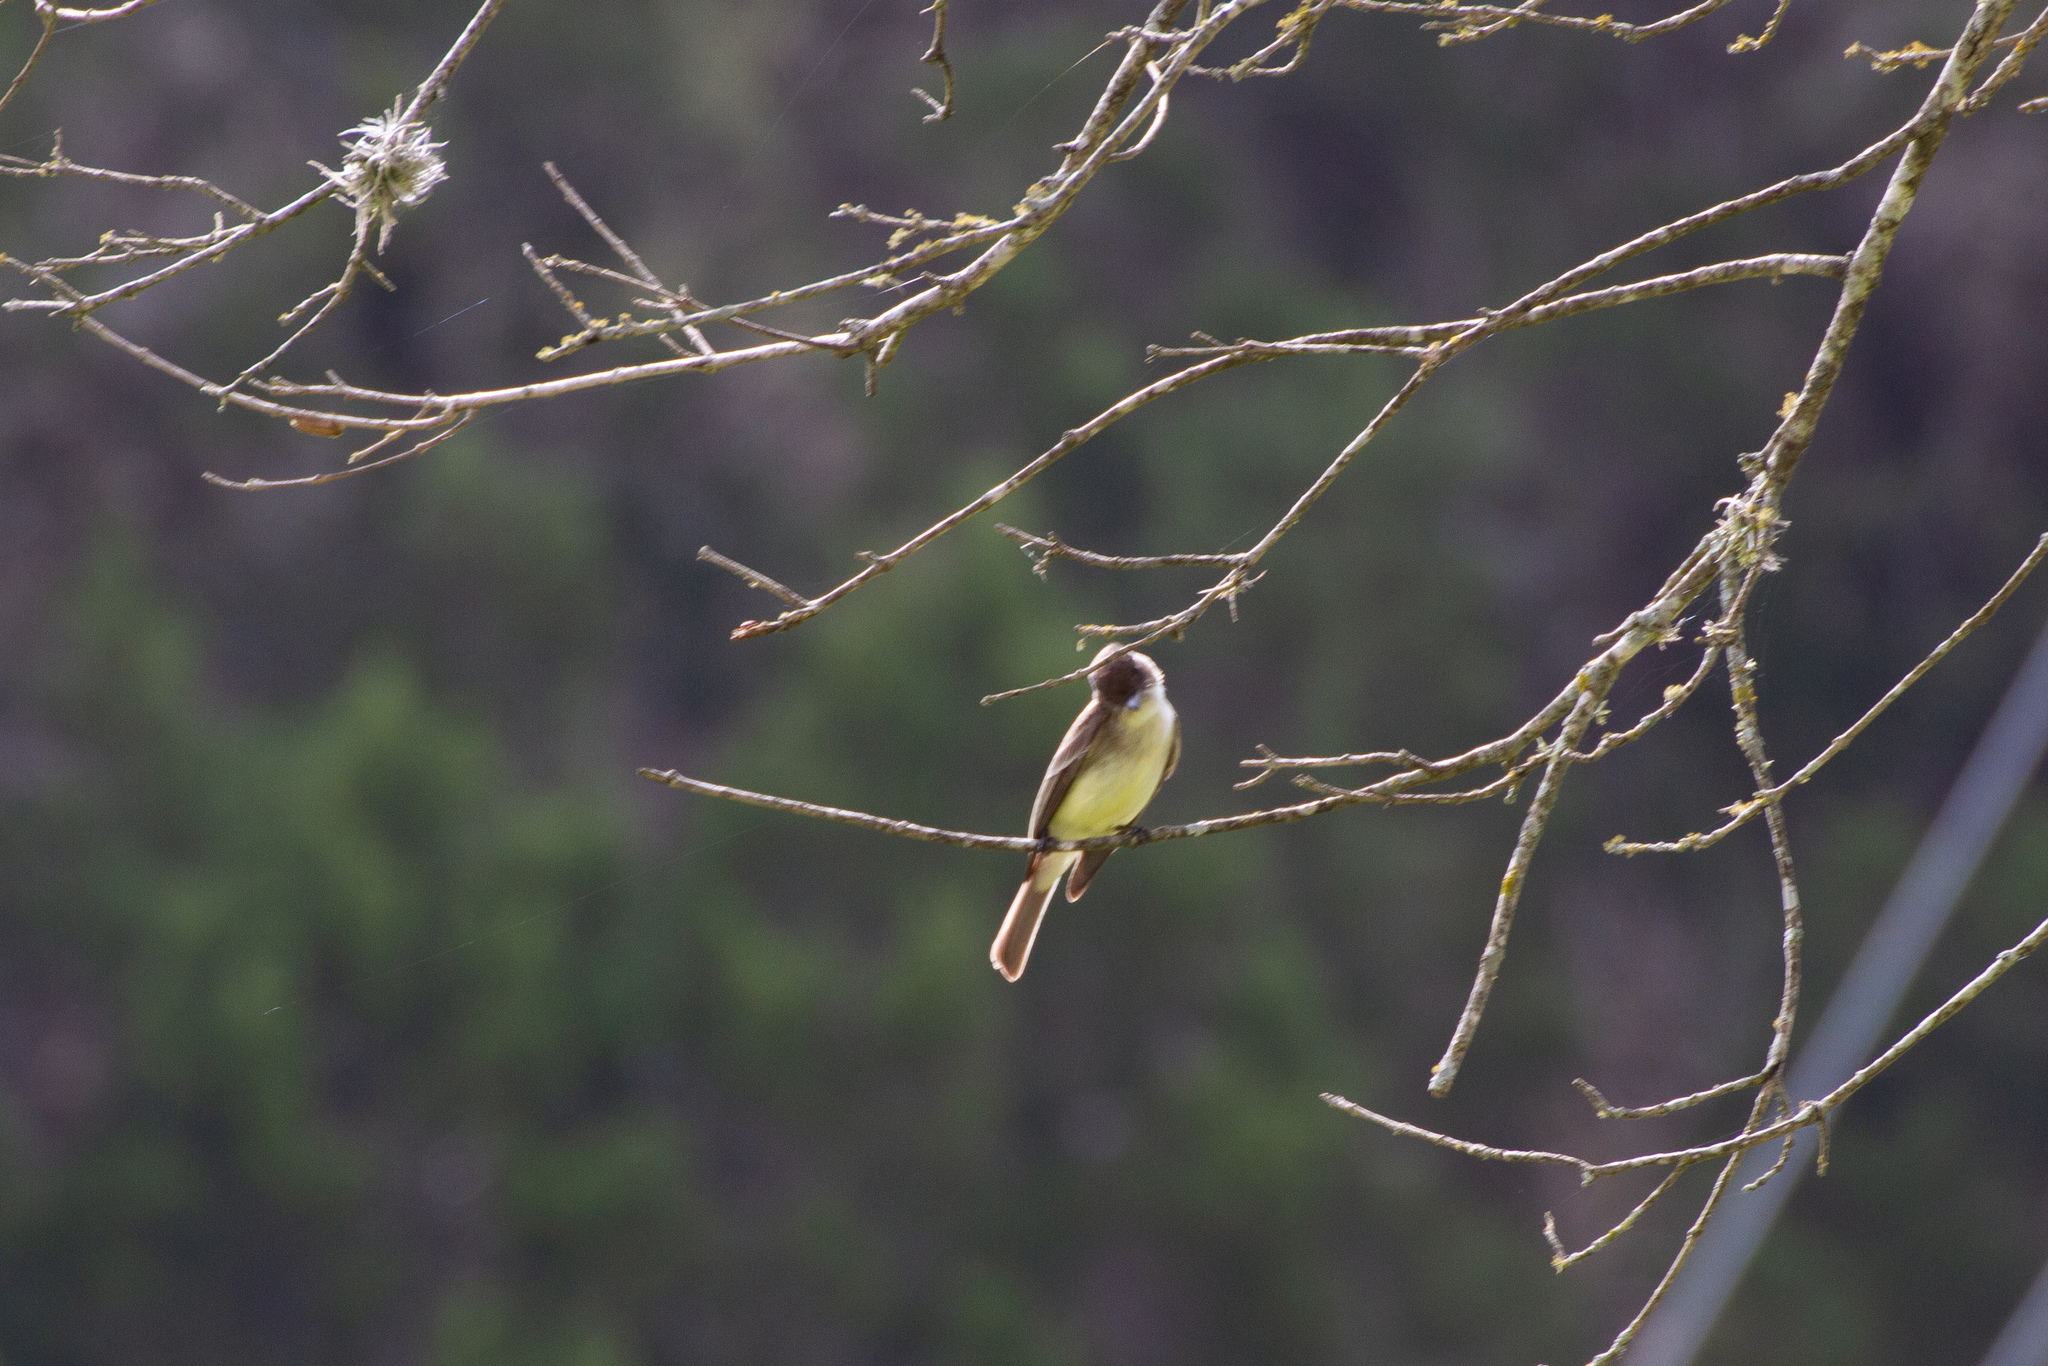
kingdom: Animalia
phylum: Chordata
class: Aves
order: Passeriformes
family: Tyrannidae
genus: Sayornis
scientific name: Sayornis phoebe
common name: Eastern phoebe
